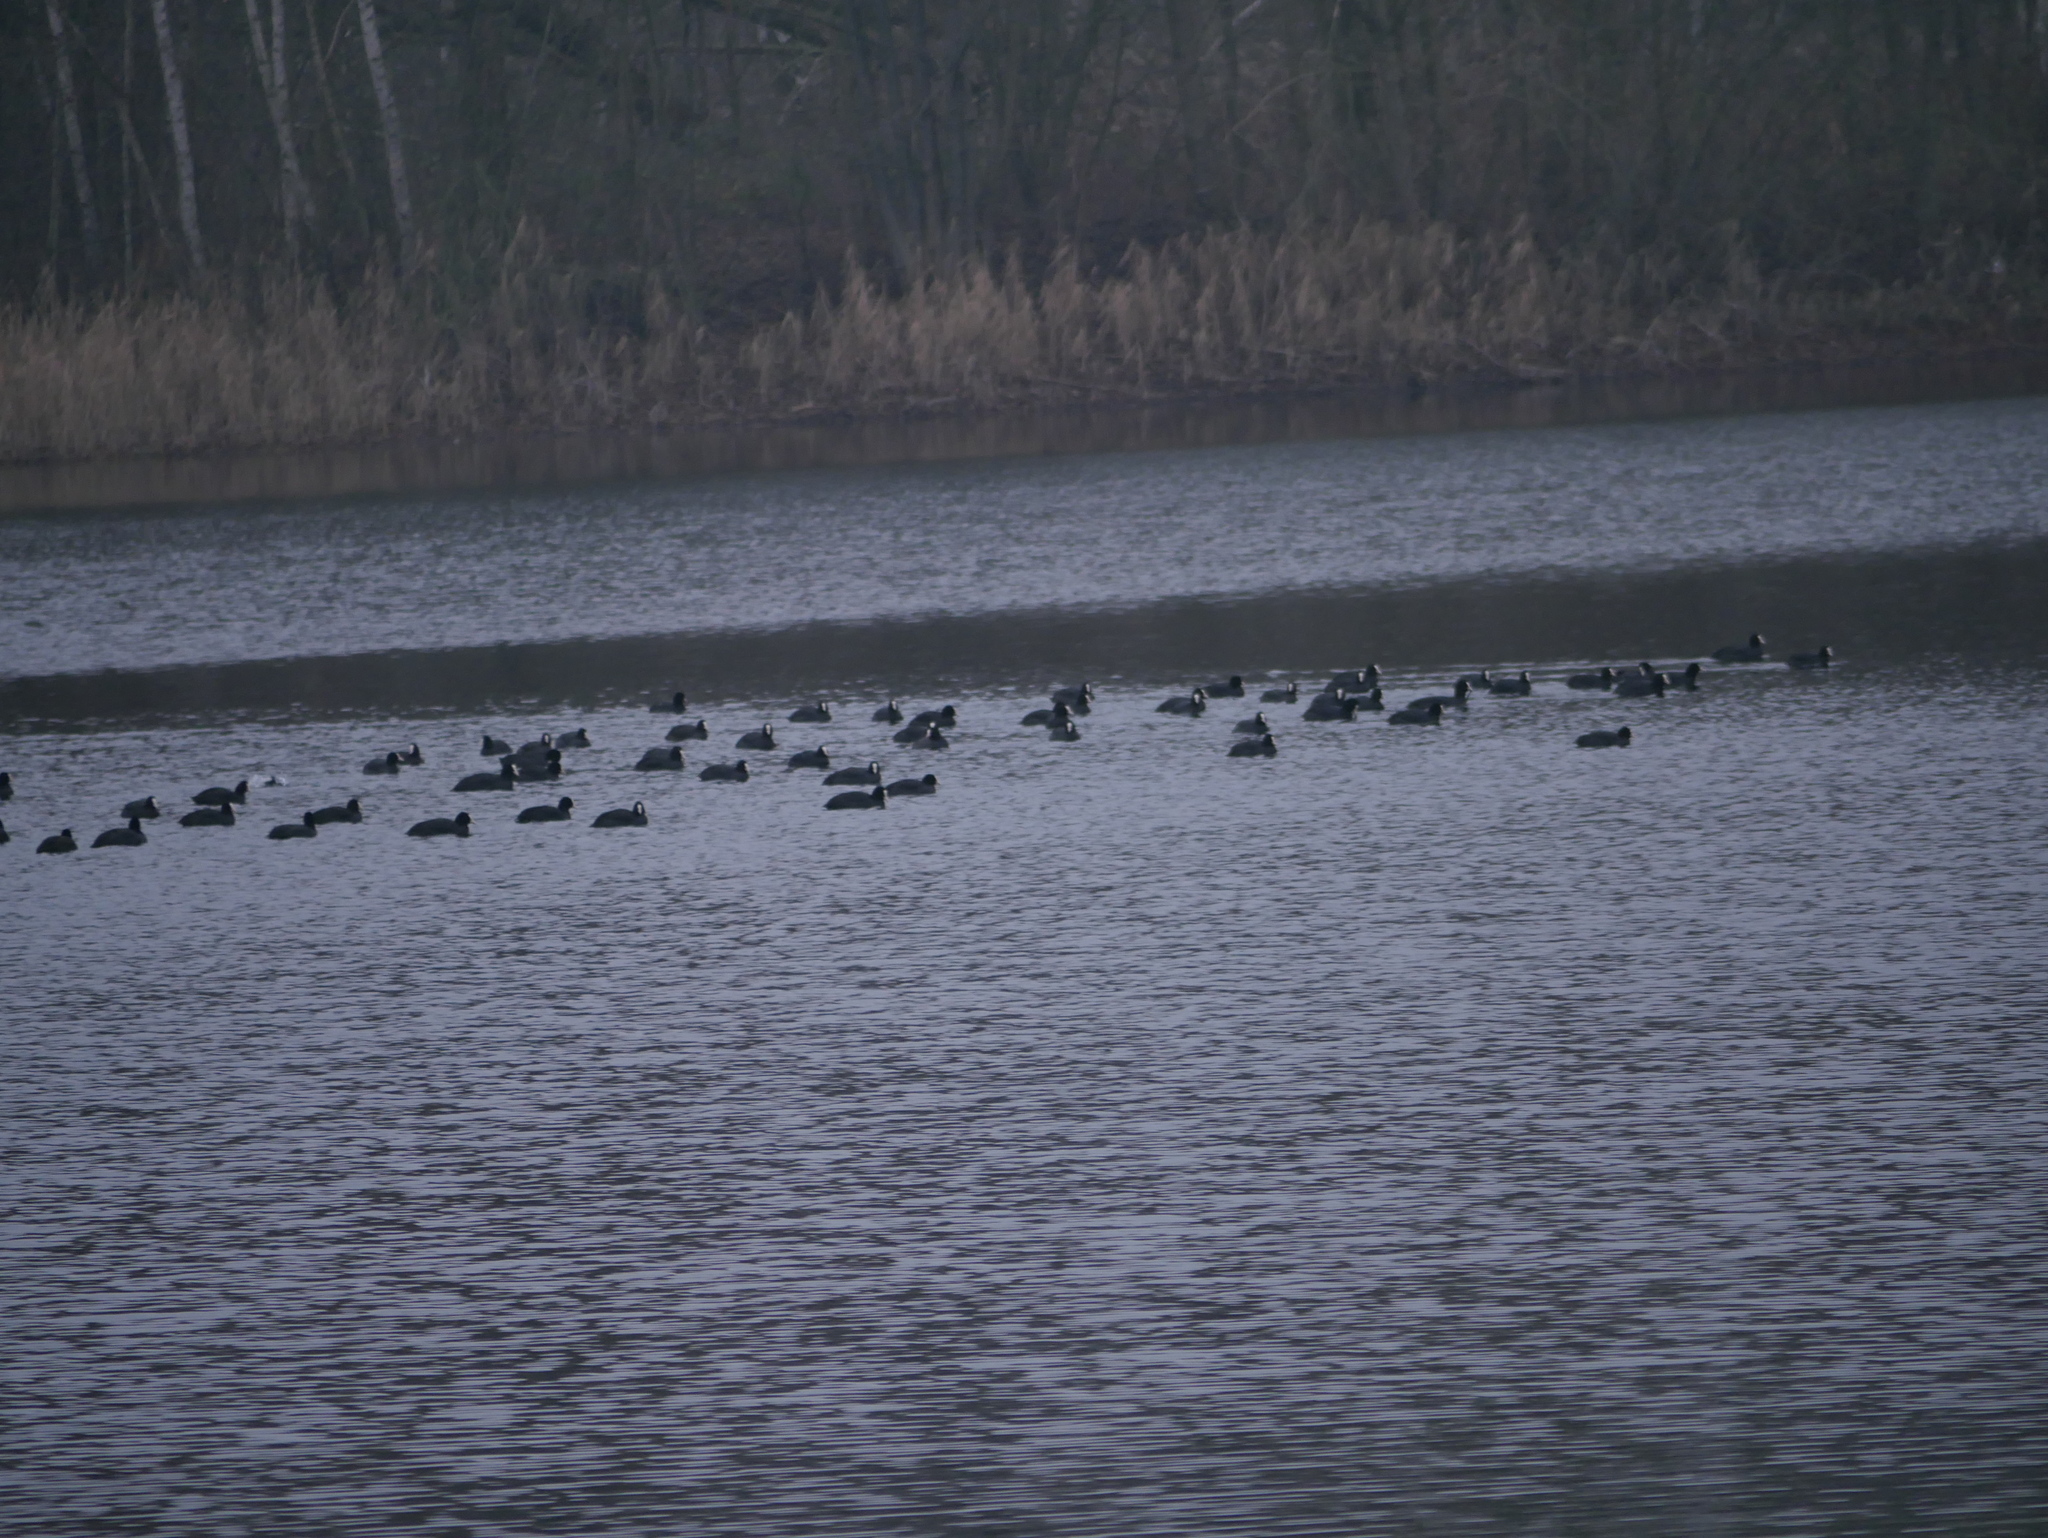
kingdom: Animalia
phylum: Chordata
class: Aves
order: Gruiformes
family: Rallidae
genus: Fulica
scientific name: Fulica atra
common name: Eurasian coot
